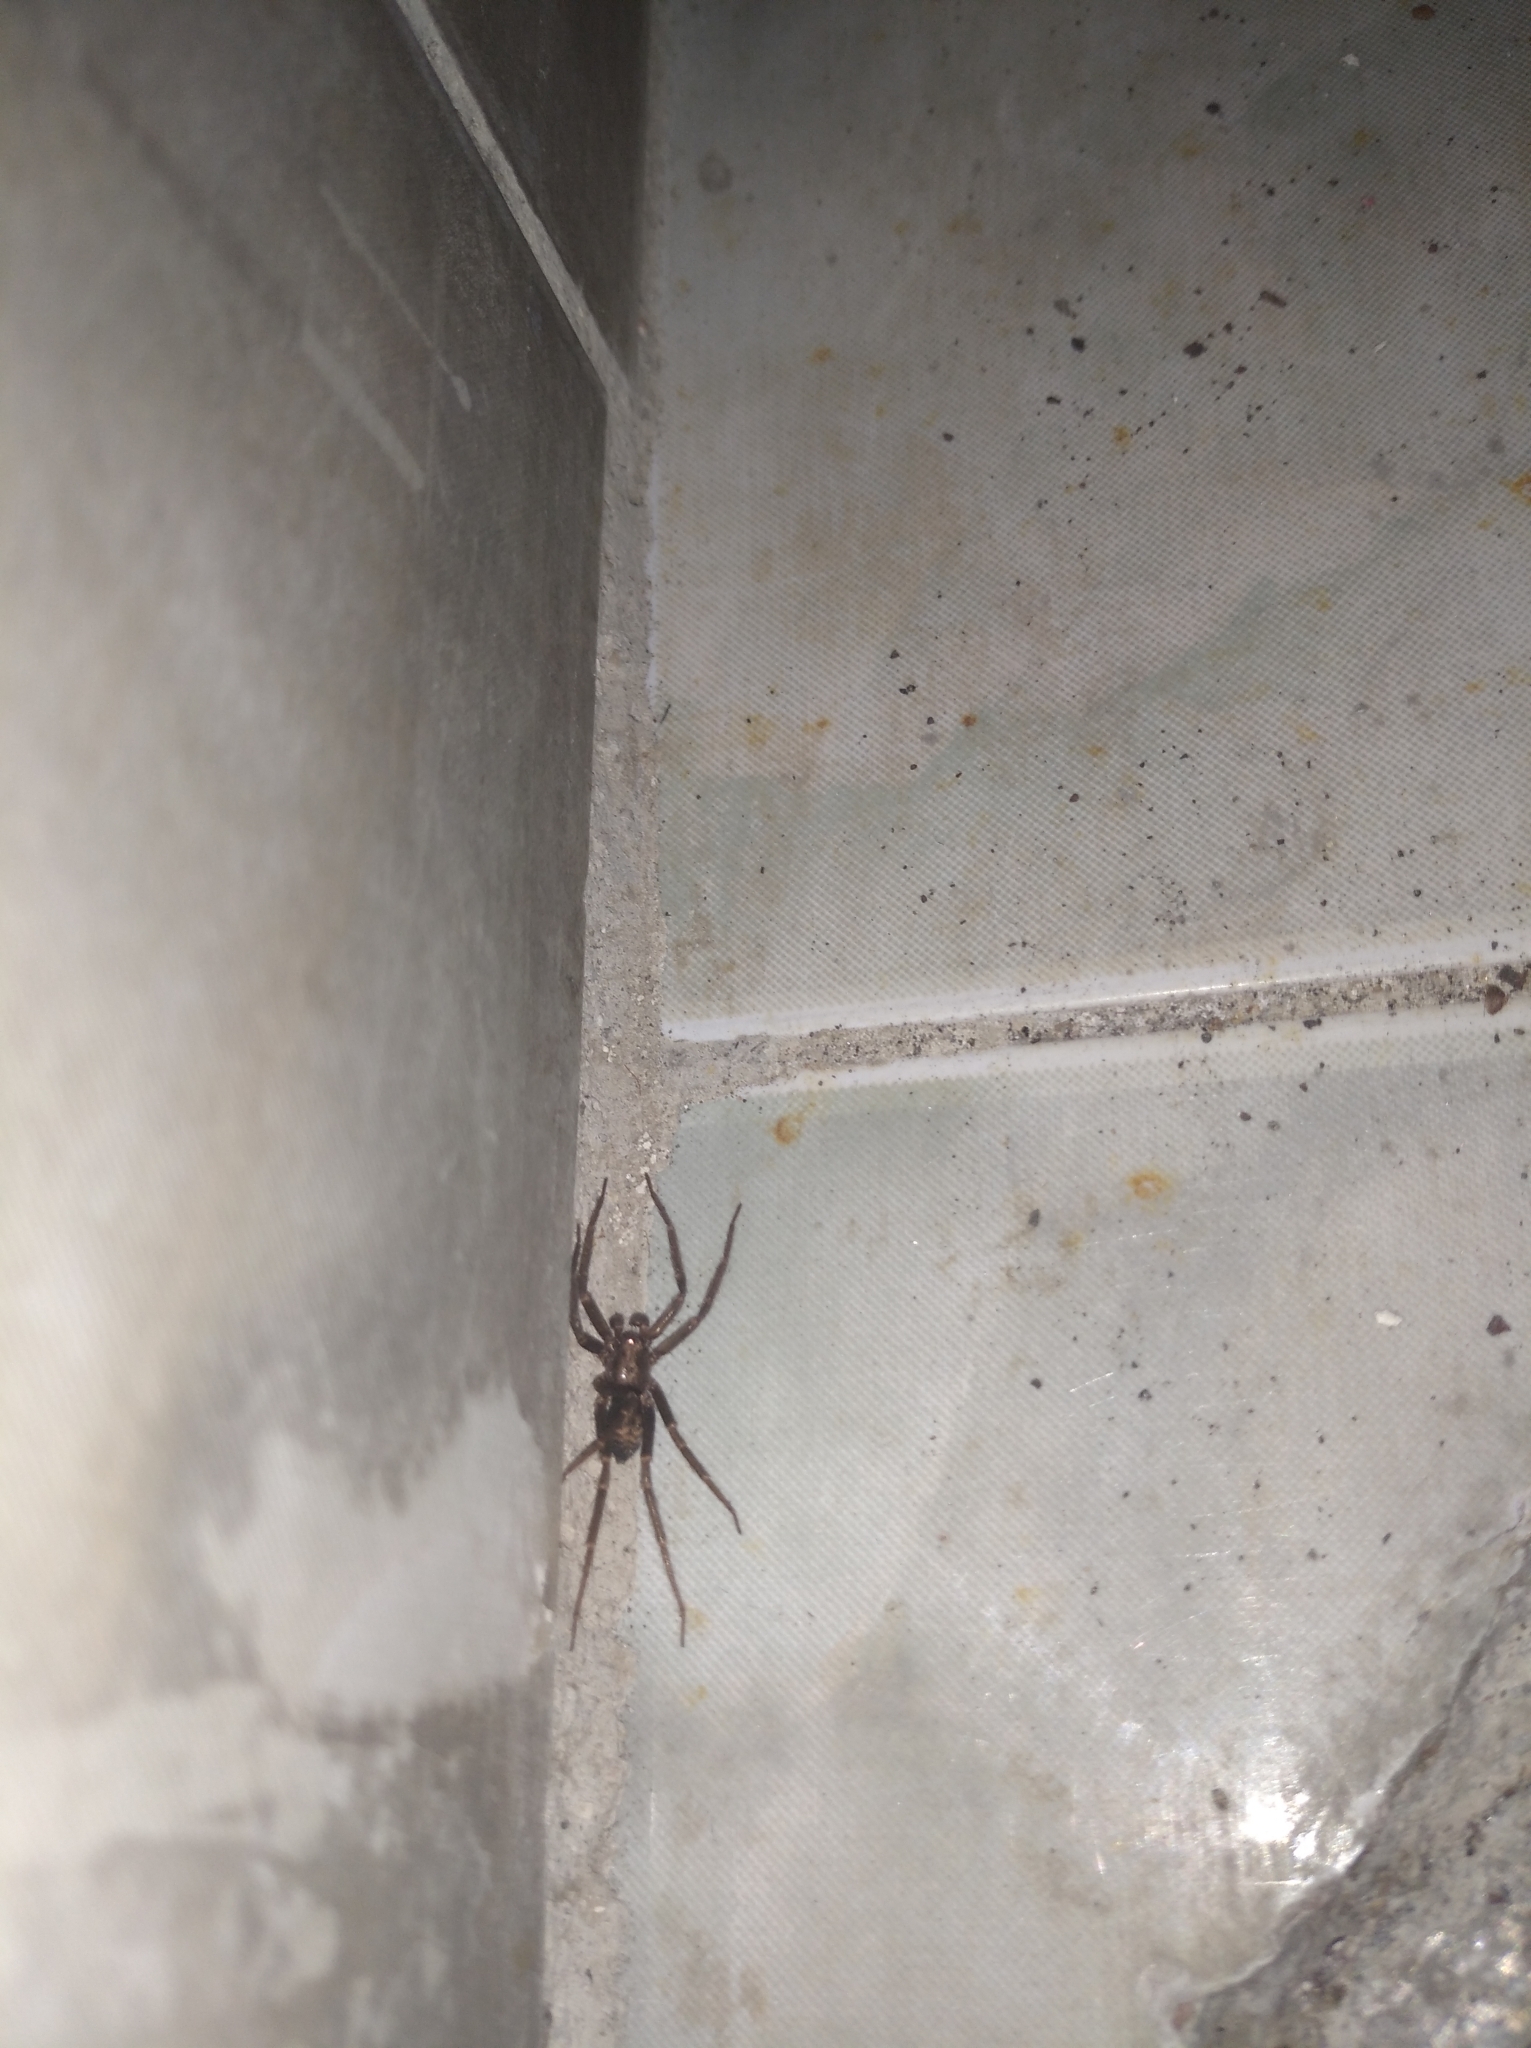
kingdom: Animalia
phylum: Arthropoda
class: Arachnida
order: Araneae
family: Agelenidae
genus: Tegenaria
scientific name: Tegenaria domestica
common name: Barn funnel weaver
